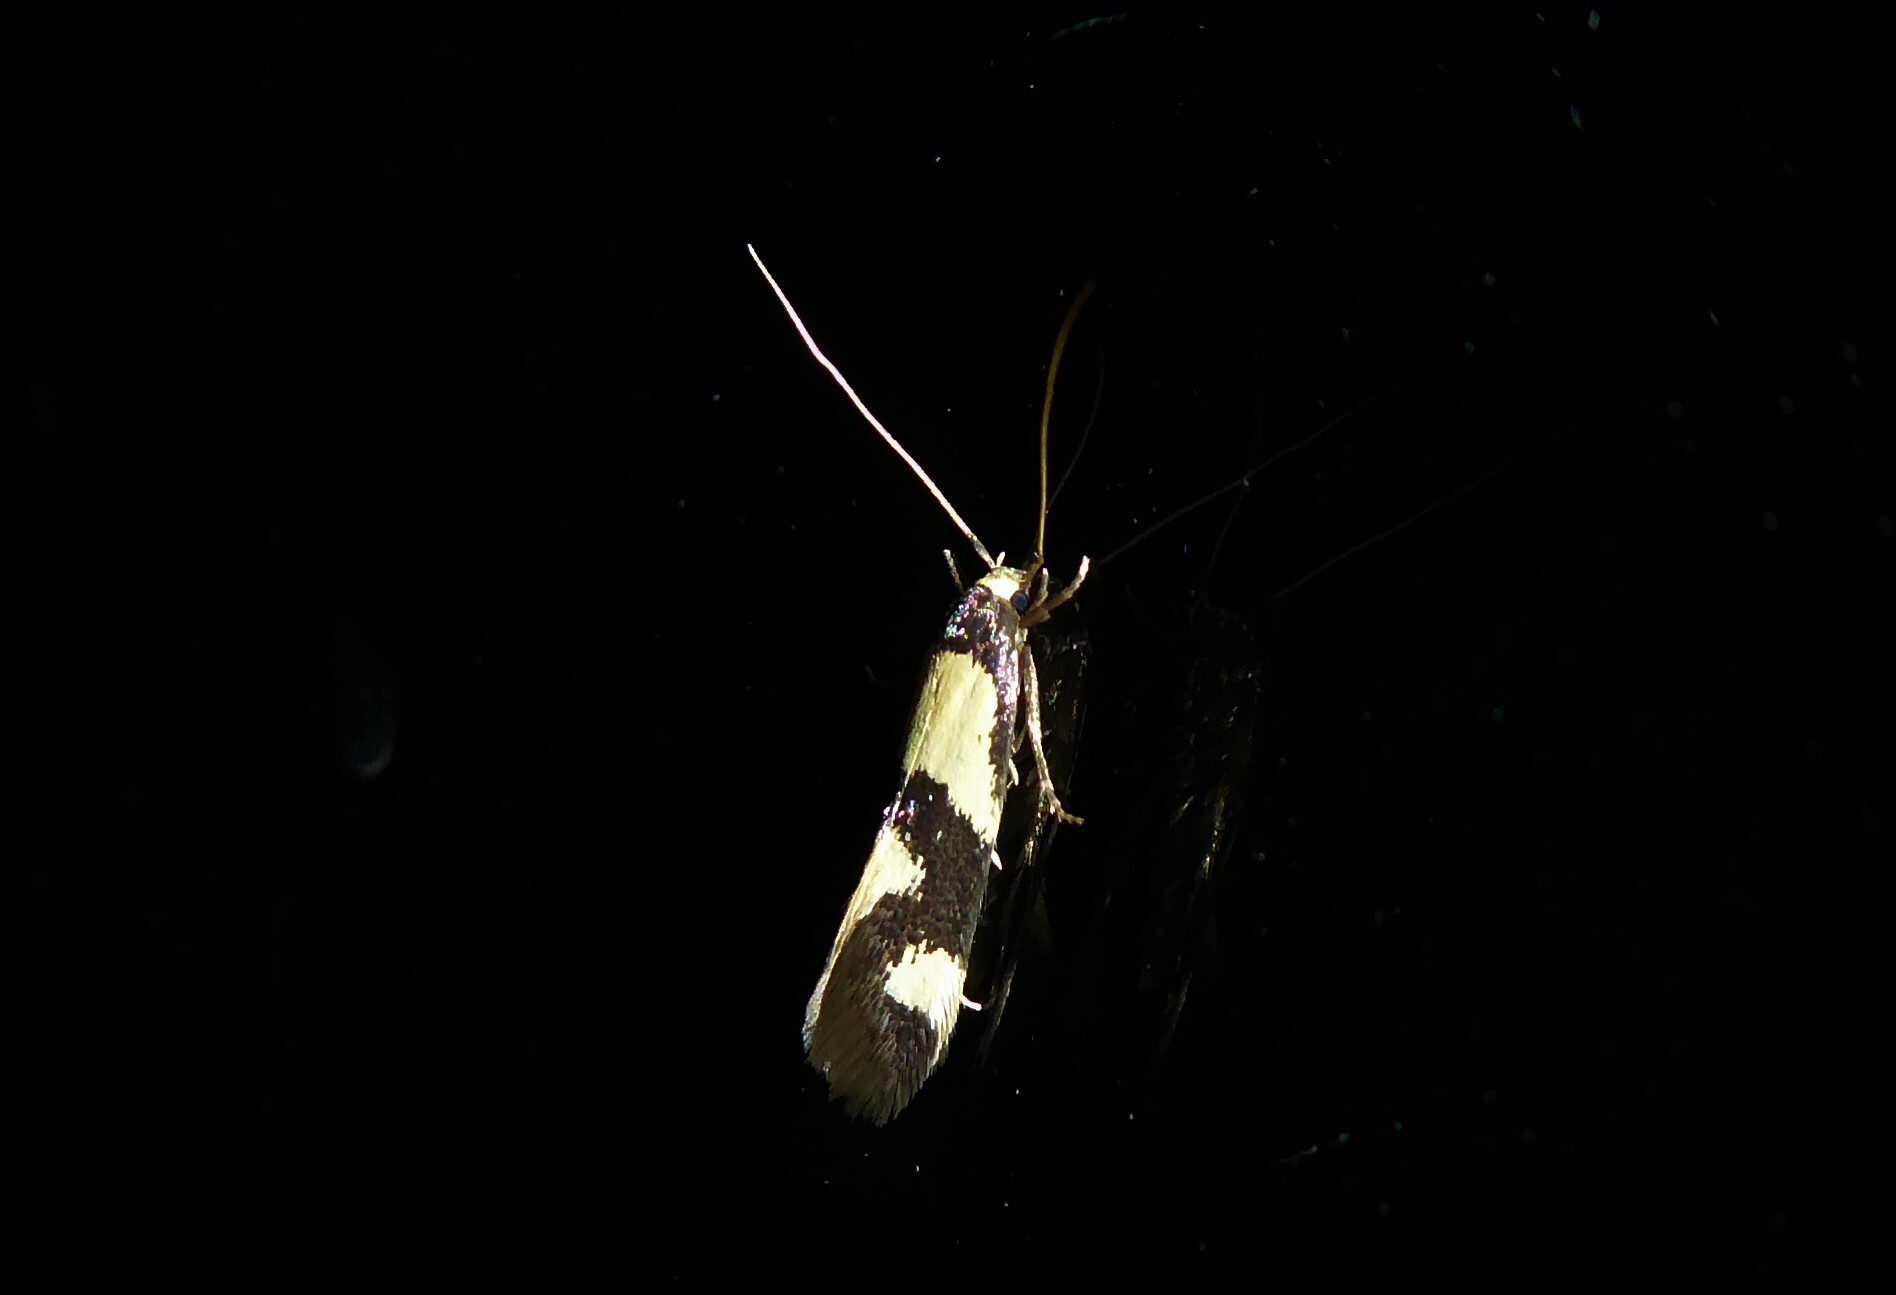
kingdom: Animalia
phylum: Arthropoda
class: Insecta
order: Lepidoptera
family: Tineidae
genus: Opogona
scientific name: Opogona comptella
